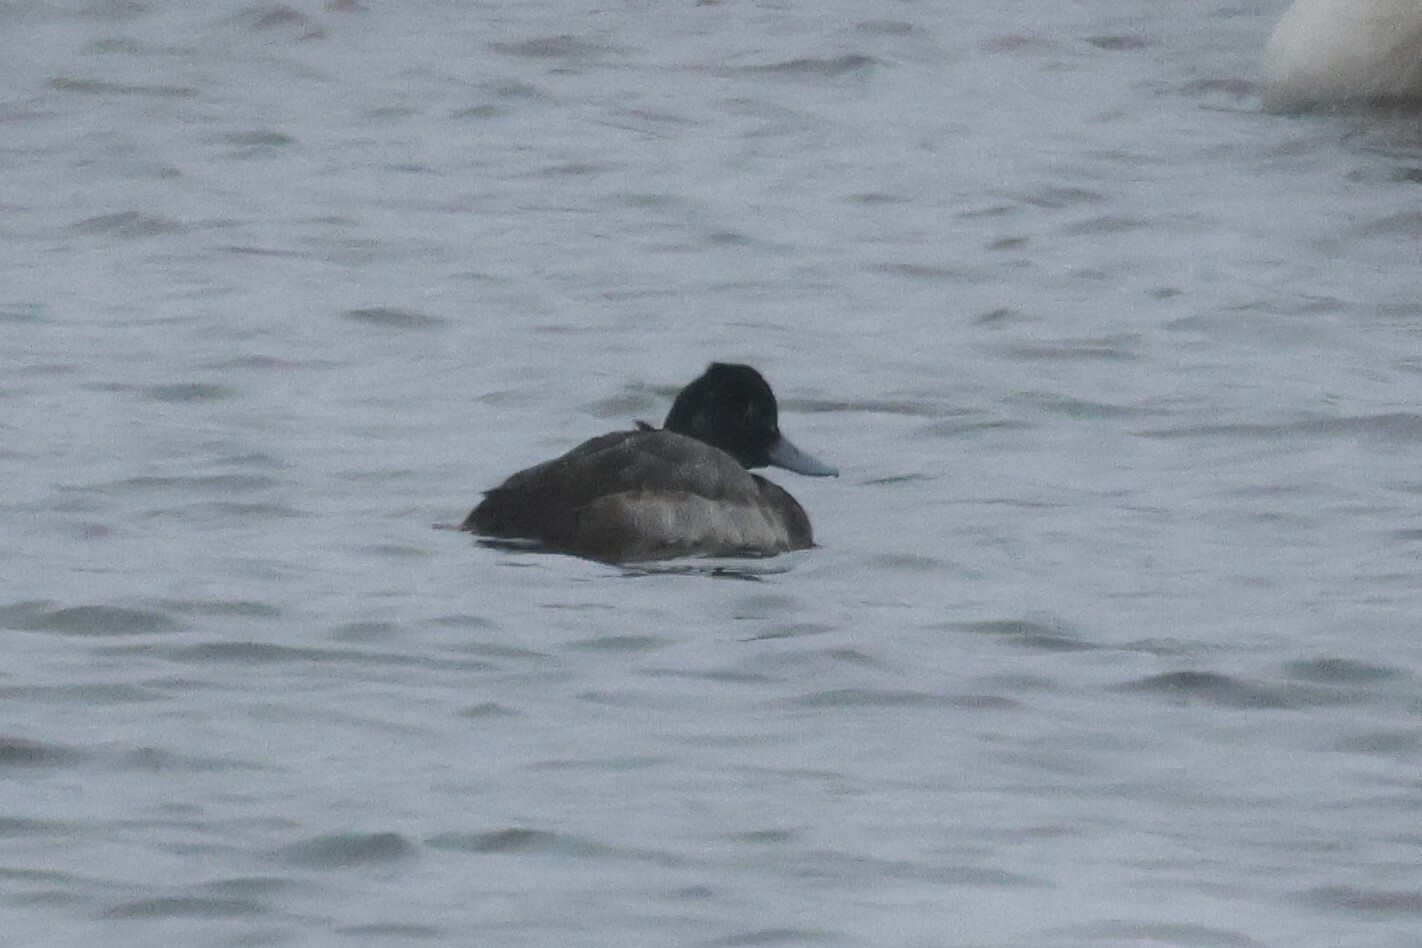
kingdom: Animalia
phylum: Chordata
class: Aves
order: Anseriformes
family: Anatidae
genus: Aythya
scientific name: Aythya affinis
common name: Lesser scaup
